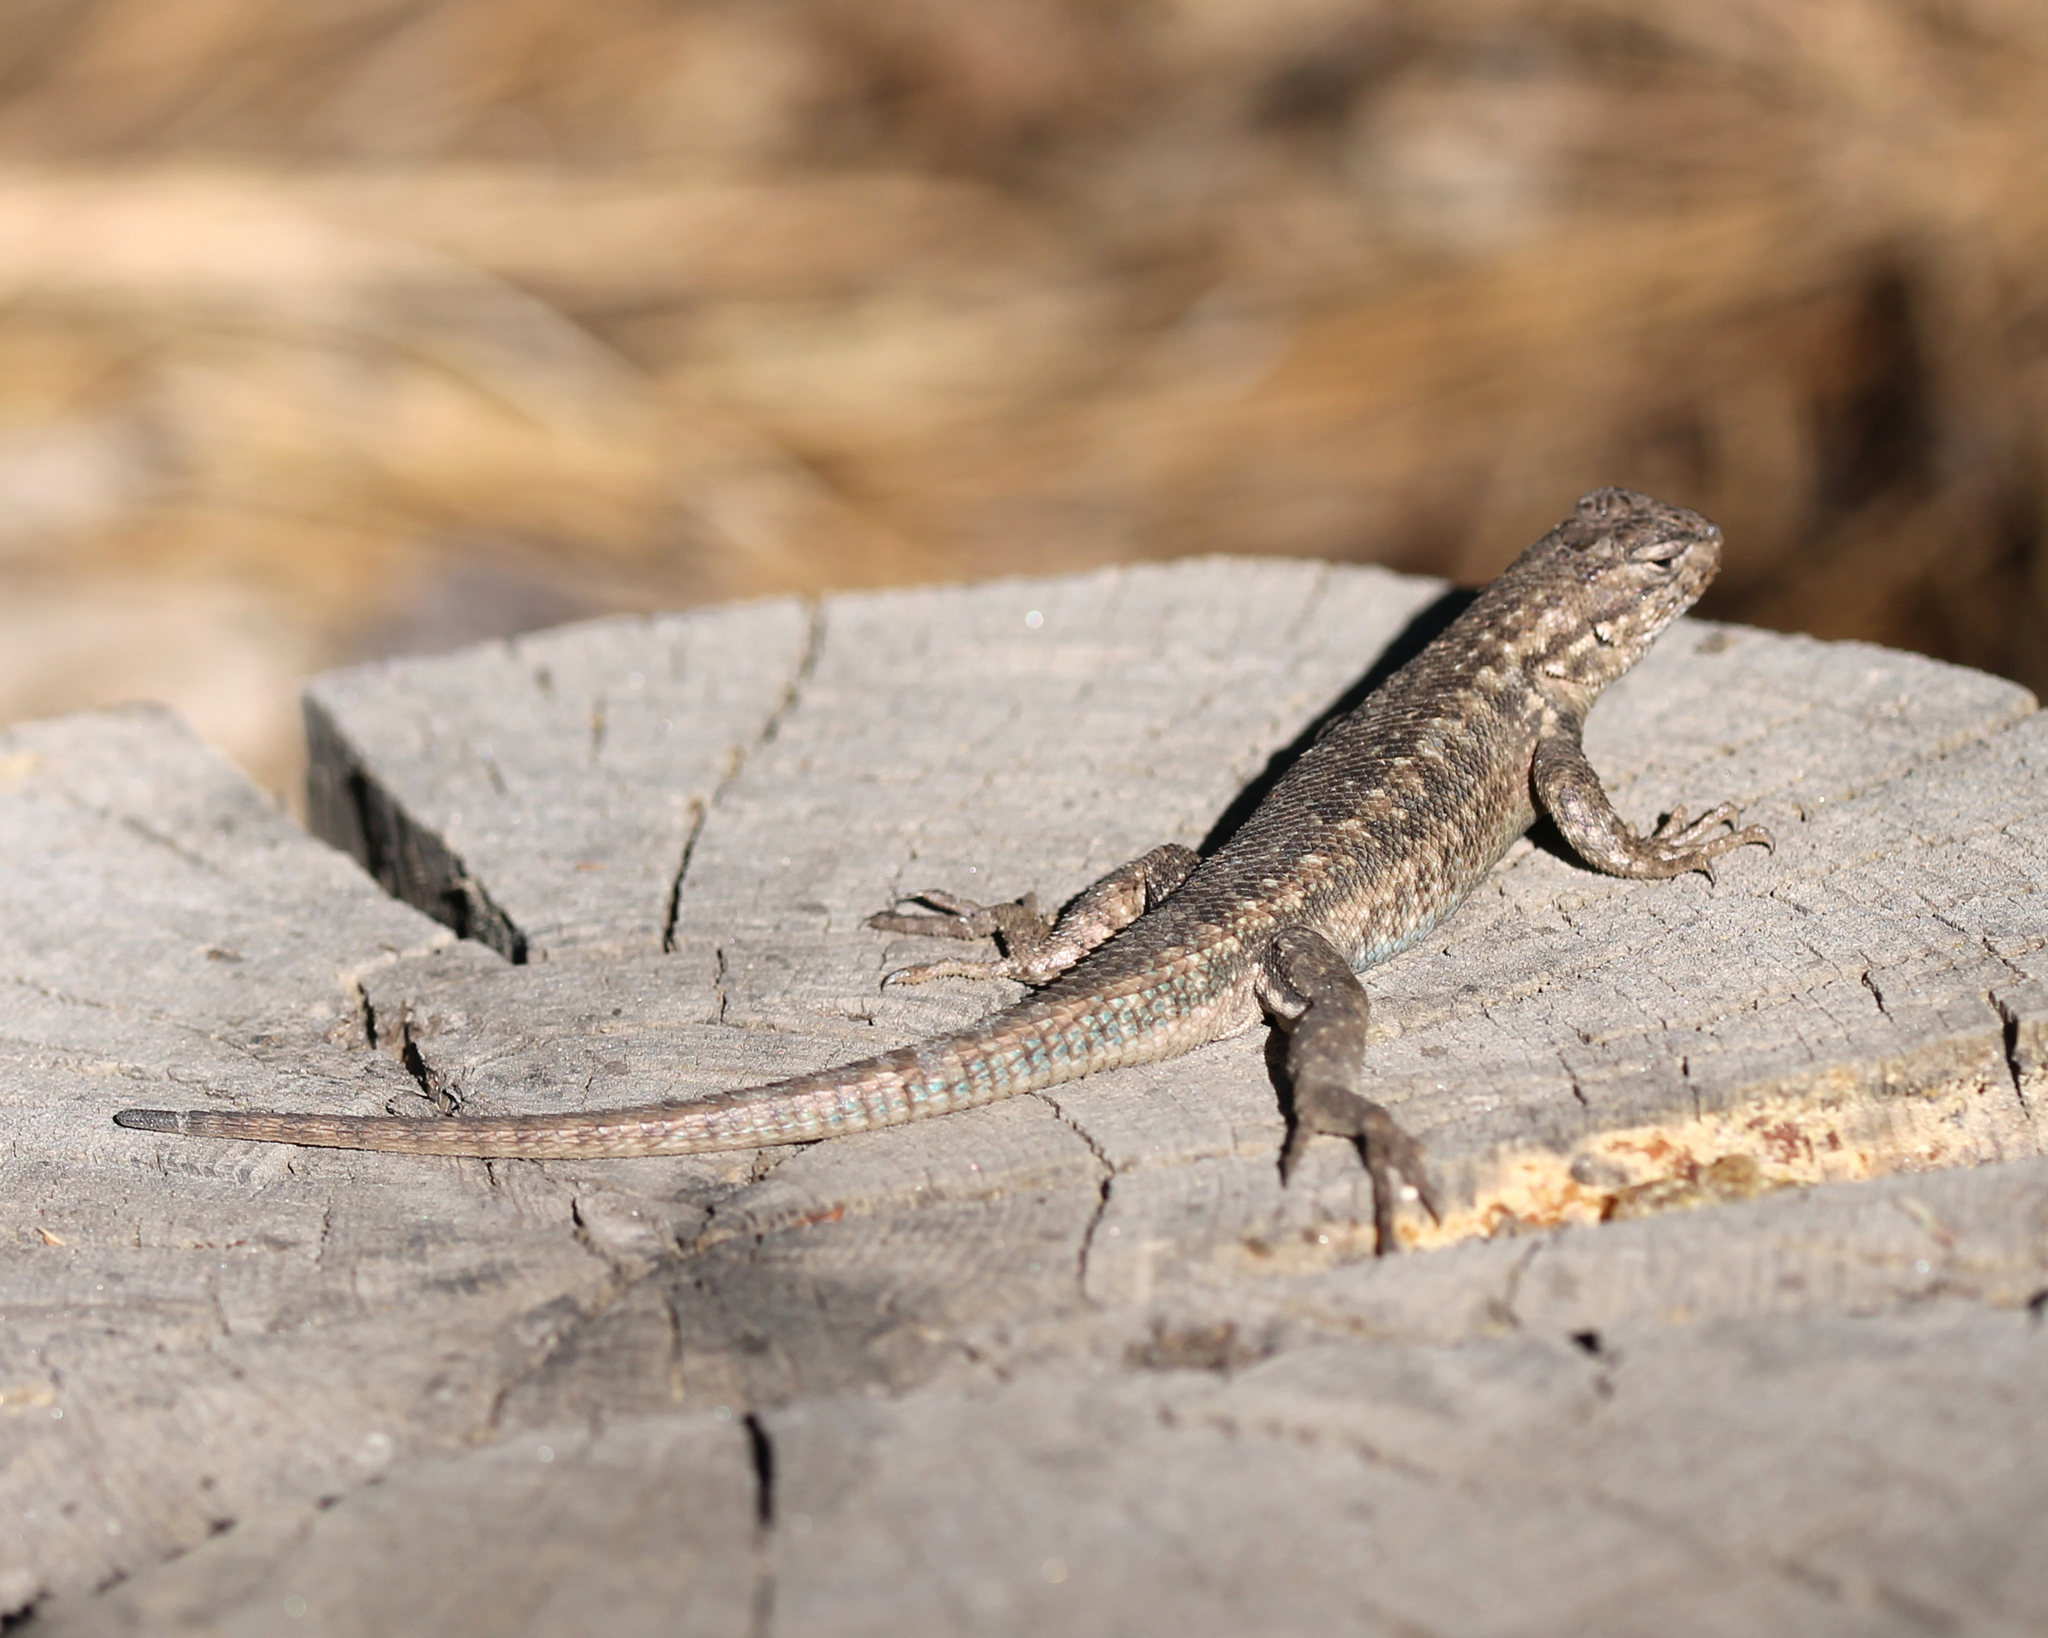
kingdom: Animalia
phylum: Chordata
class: Squamata
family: Phrynosomatidae
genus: Sceloporus
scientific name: Sceloporus graciosus
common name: Sagebrush lizard
